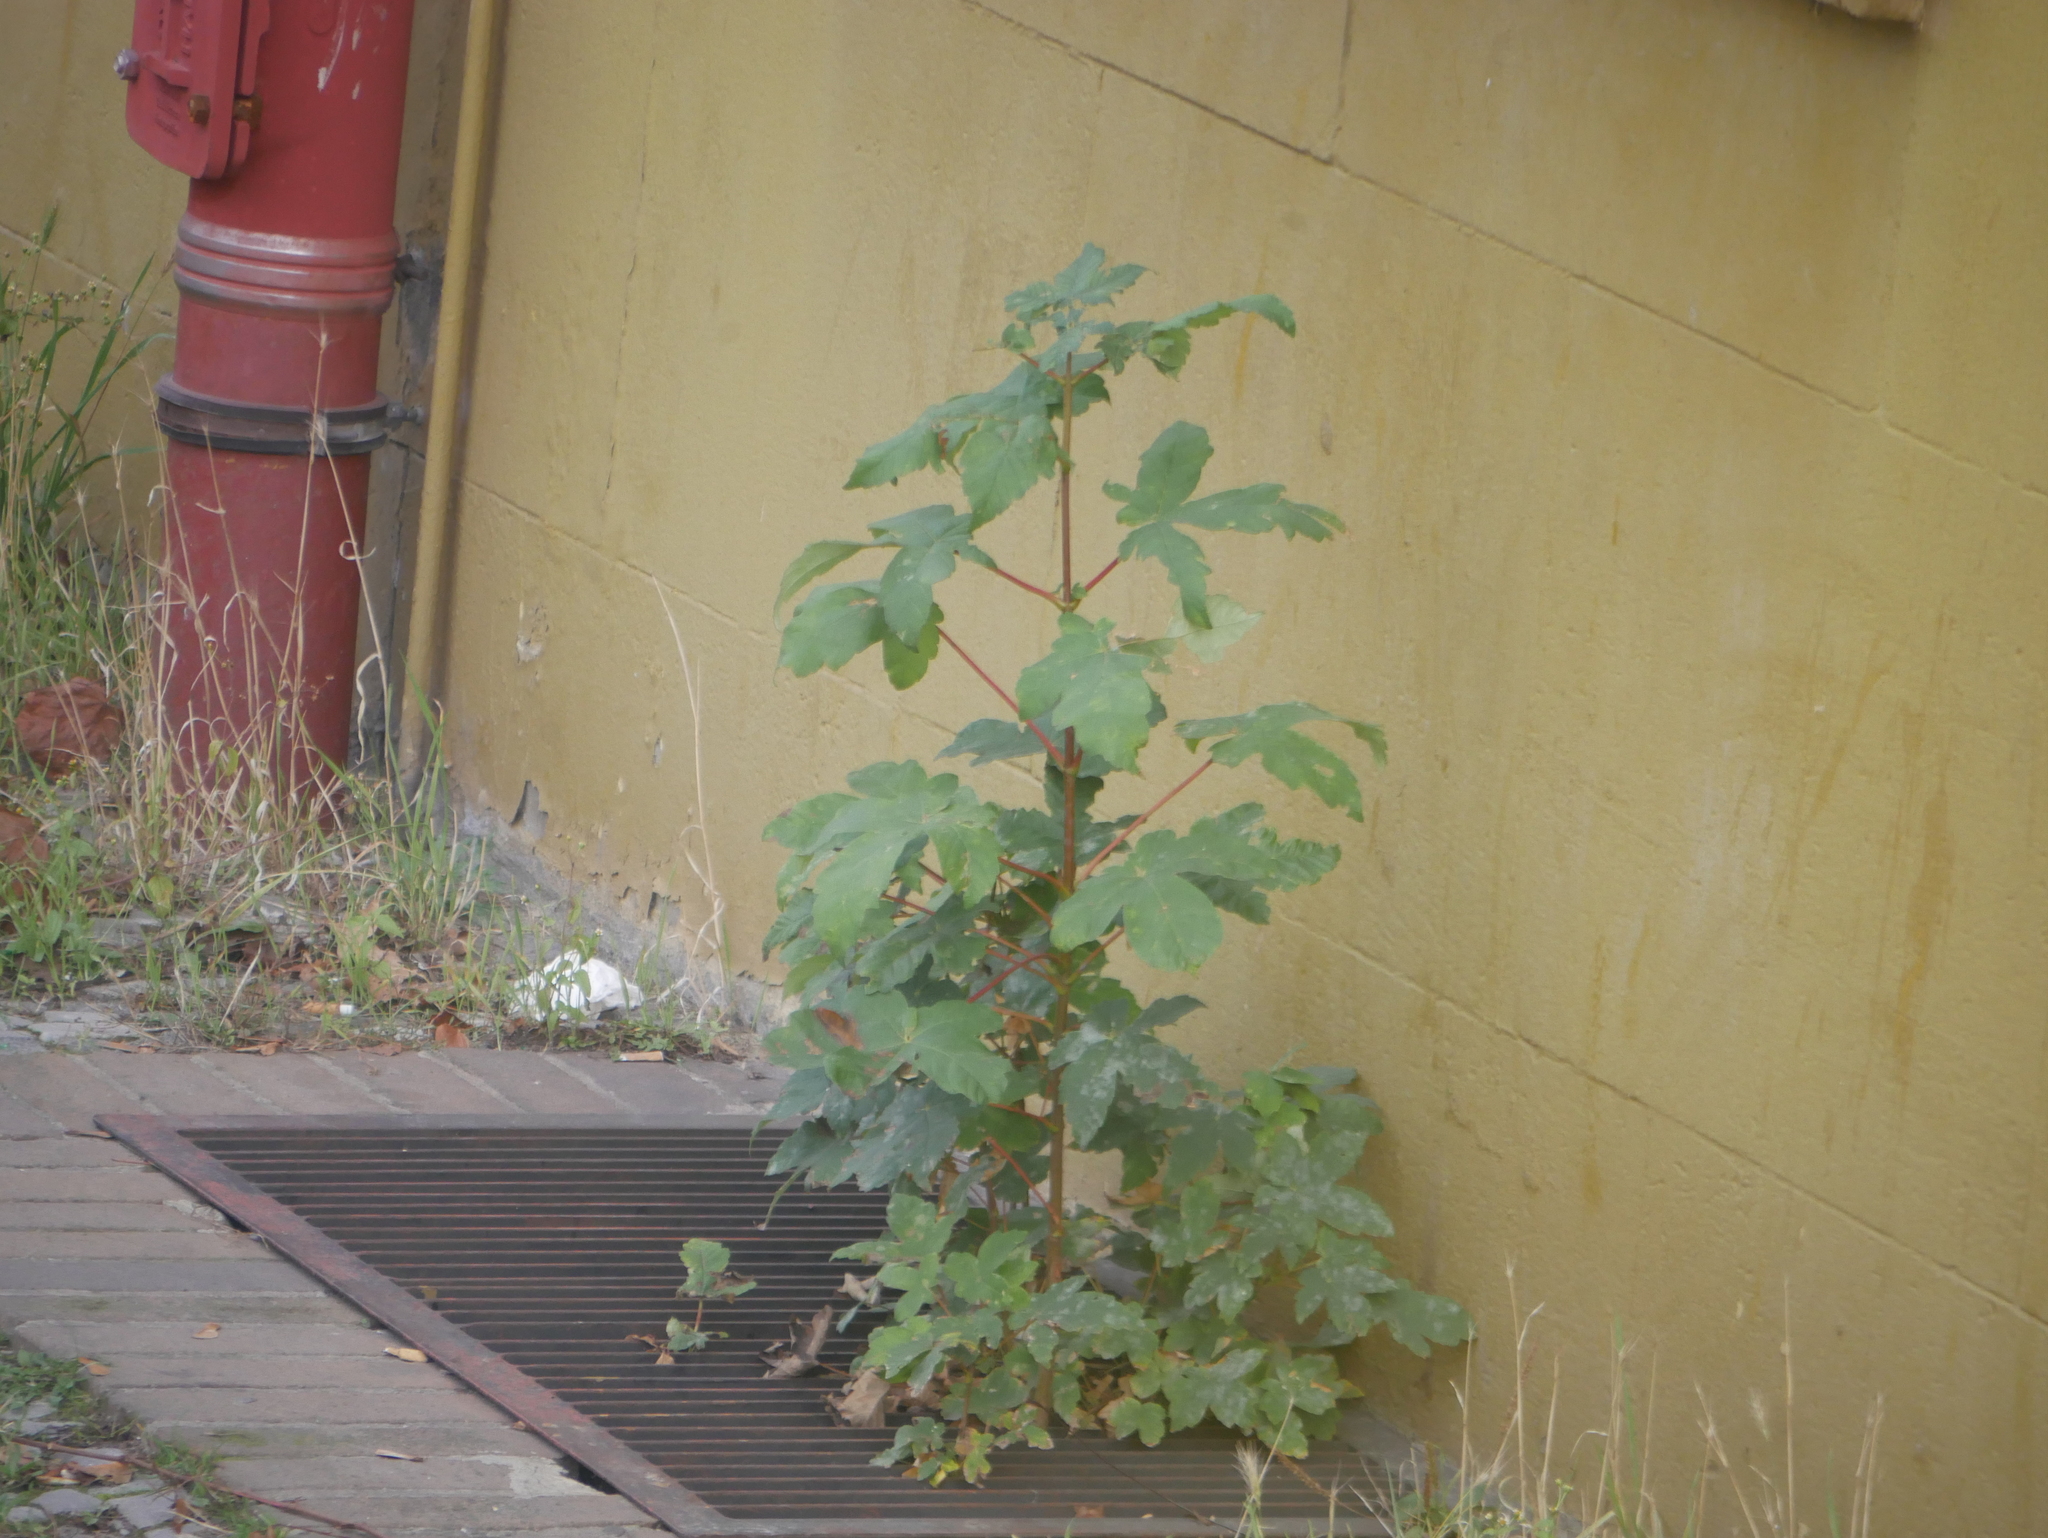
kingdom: Plantae
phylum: Tracheophyta
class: Magnoliopsida
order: Sapindales
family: Sapindaceae
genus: Acer
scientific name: Acer pseudoplatanus
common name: Sycamore
